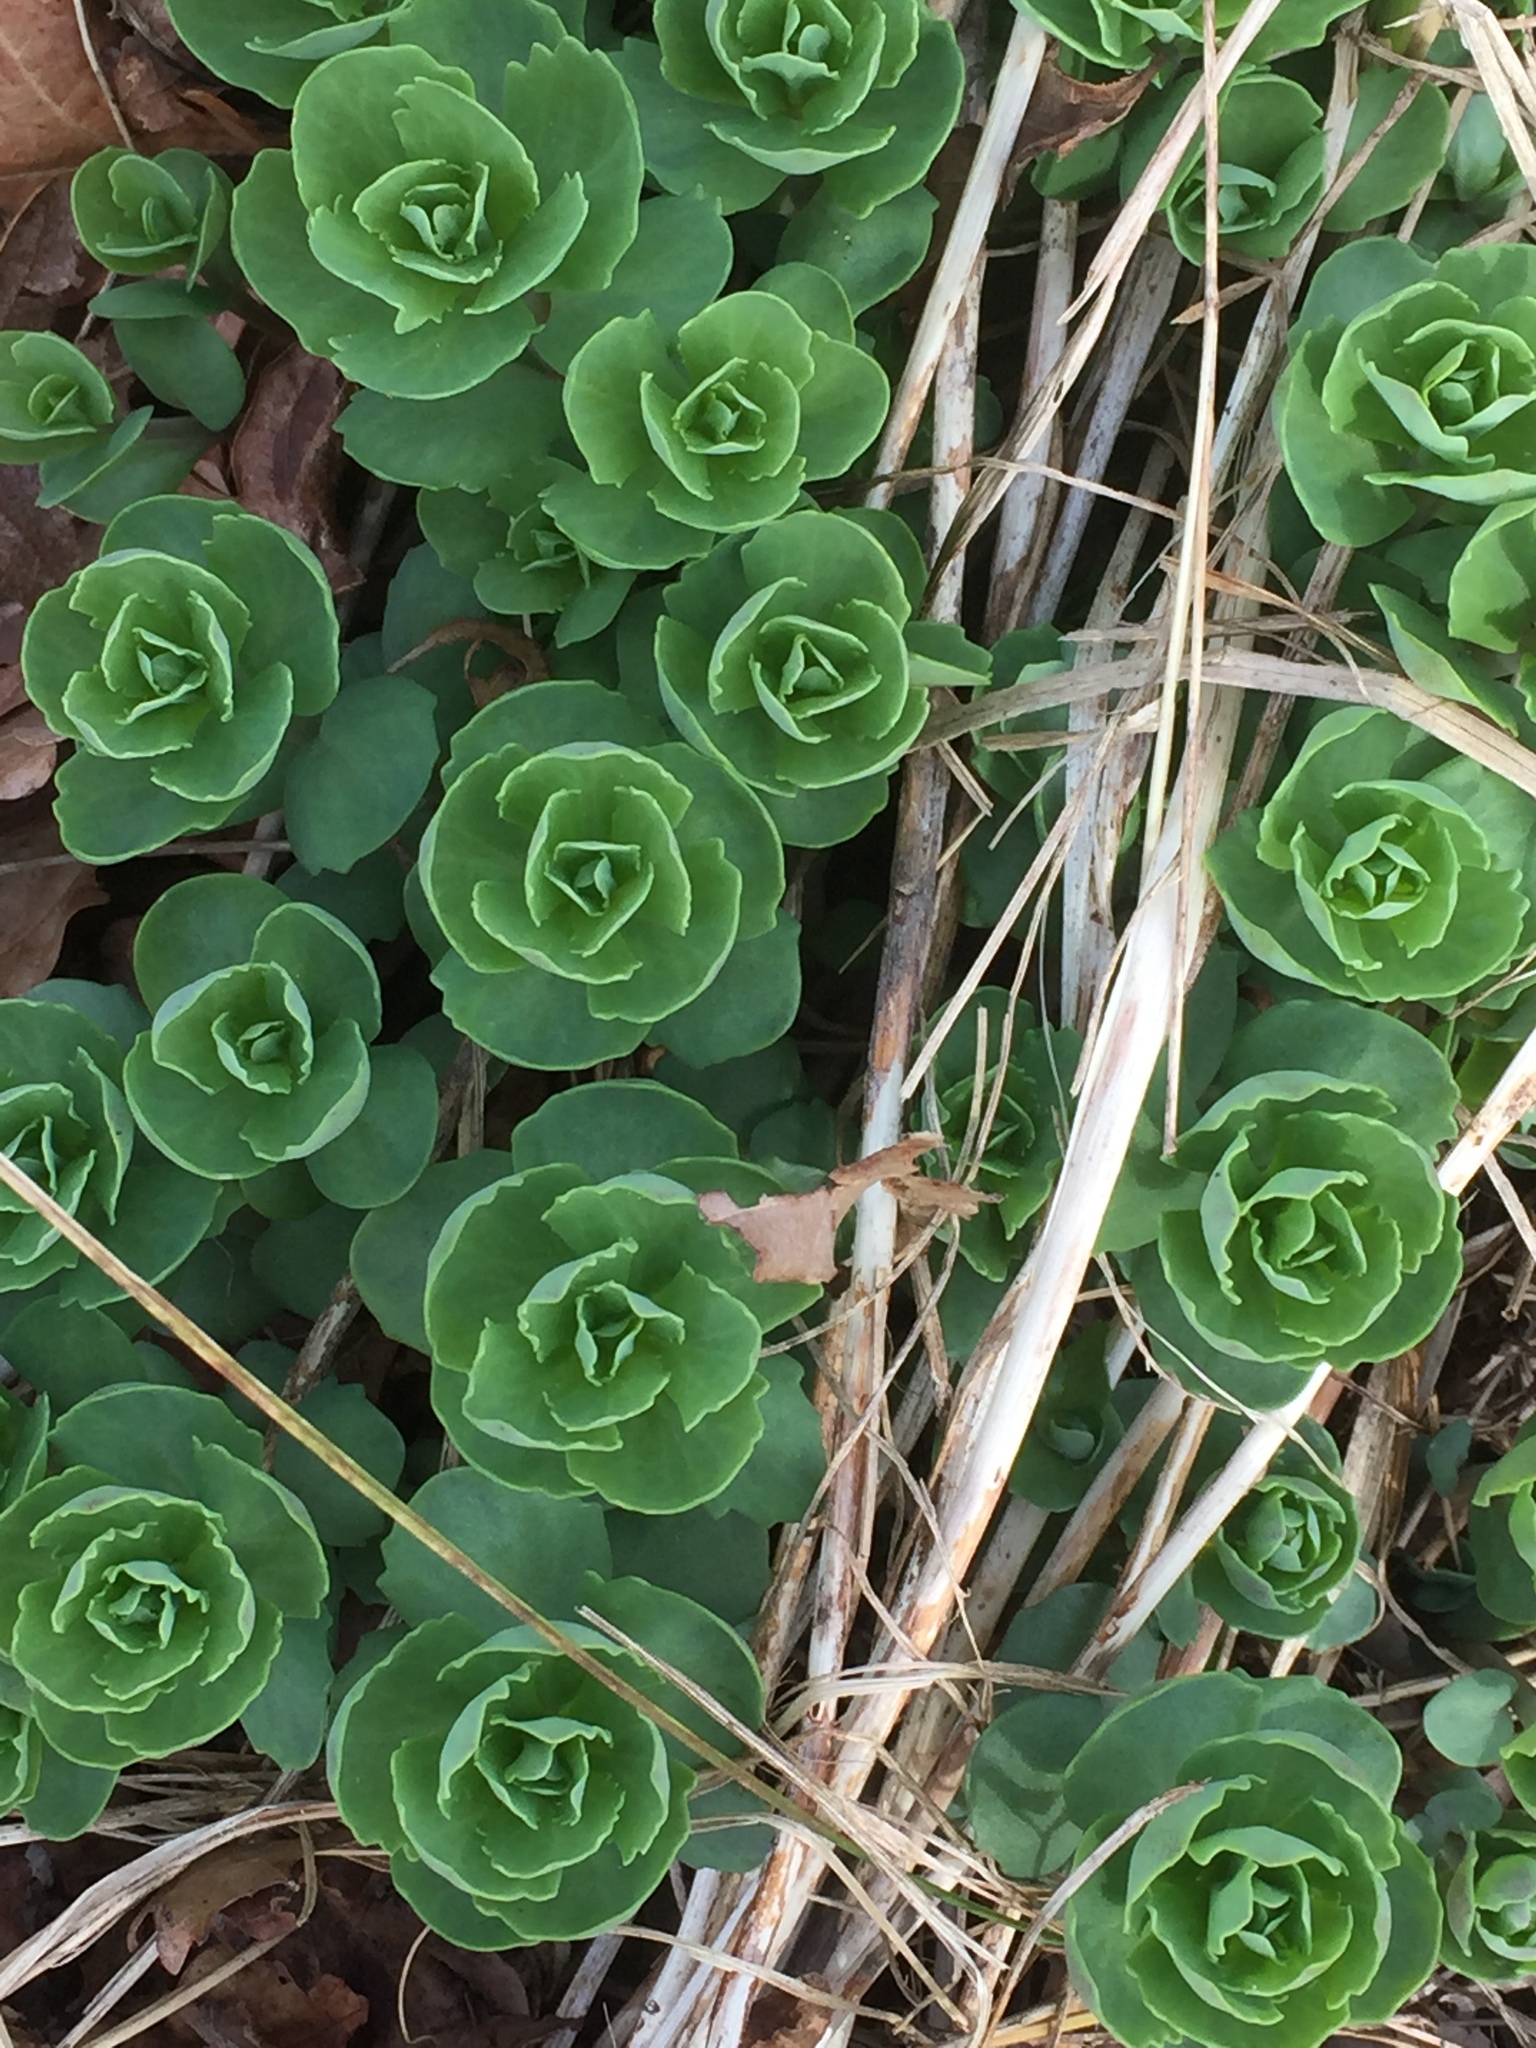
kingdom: Plantae
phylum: Tracheophyta
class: Magnoliopsida
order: Saxifragales
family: Crassulaceae
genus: Hylotelephium
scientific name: Hylotelephium telephium
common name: Live-forever
